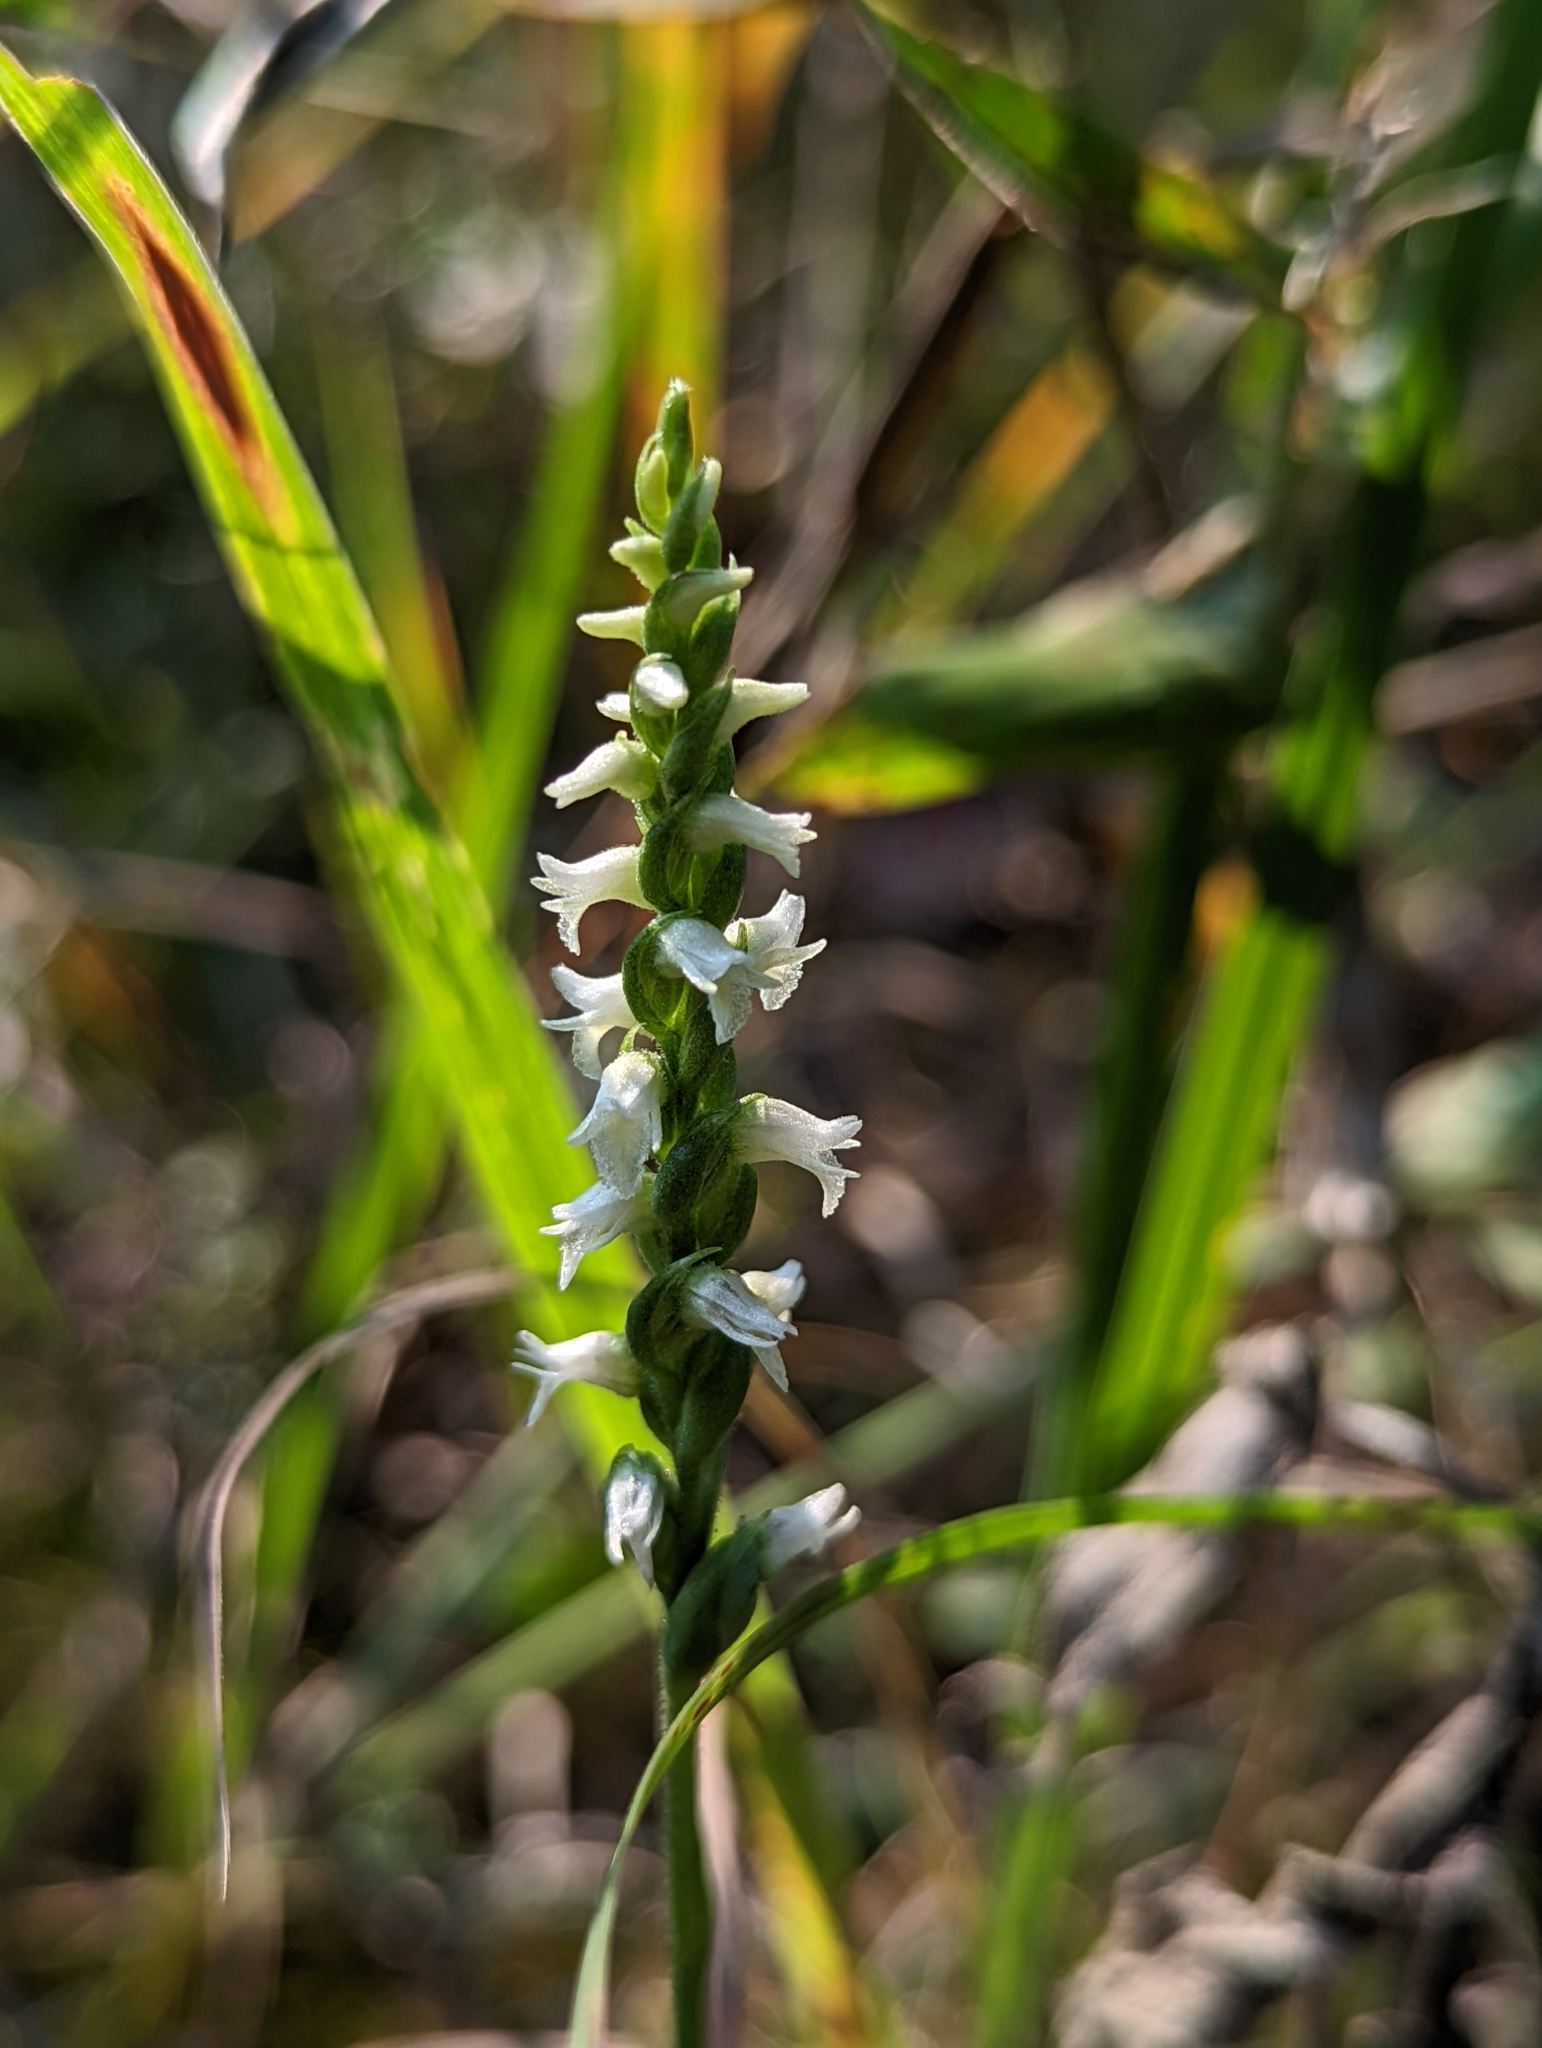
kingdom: Plantae
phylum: Tracheophyta
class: Liliopsida
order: Asparagales
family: Orchidaceae
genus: Spiranthes
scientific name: Spiranthes ovalis
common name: October ladies'-tresses
